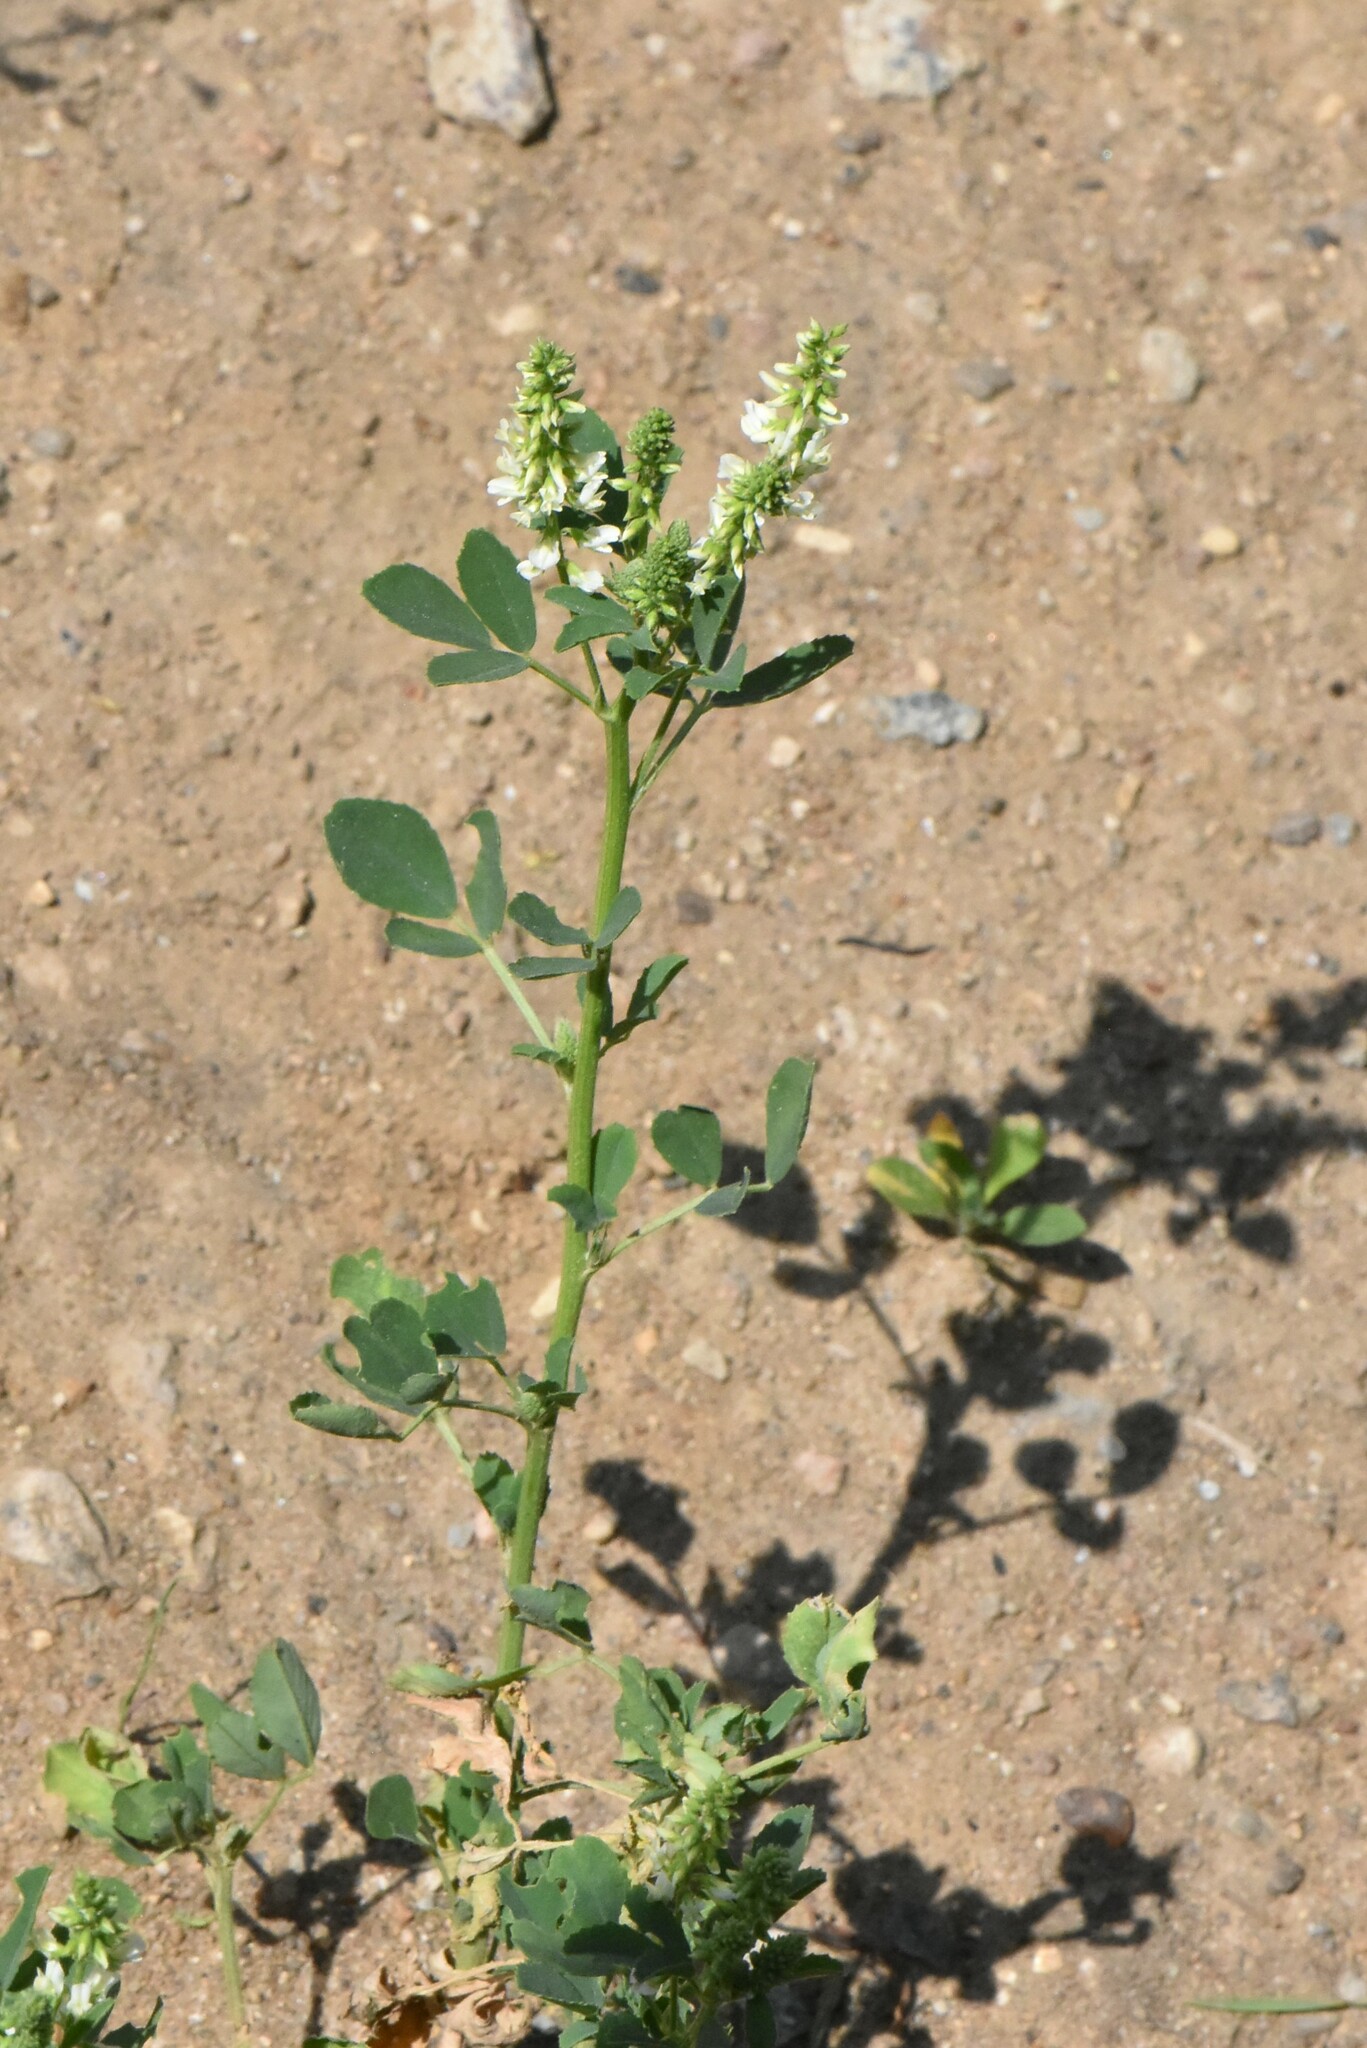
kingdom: Plantae
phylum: Tracheophyta
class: Magnoliopsida
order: Fabales
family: Fabaceae
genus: Melilotus
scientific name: Melilotus albus
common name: White melilot
